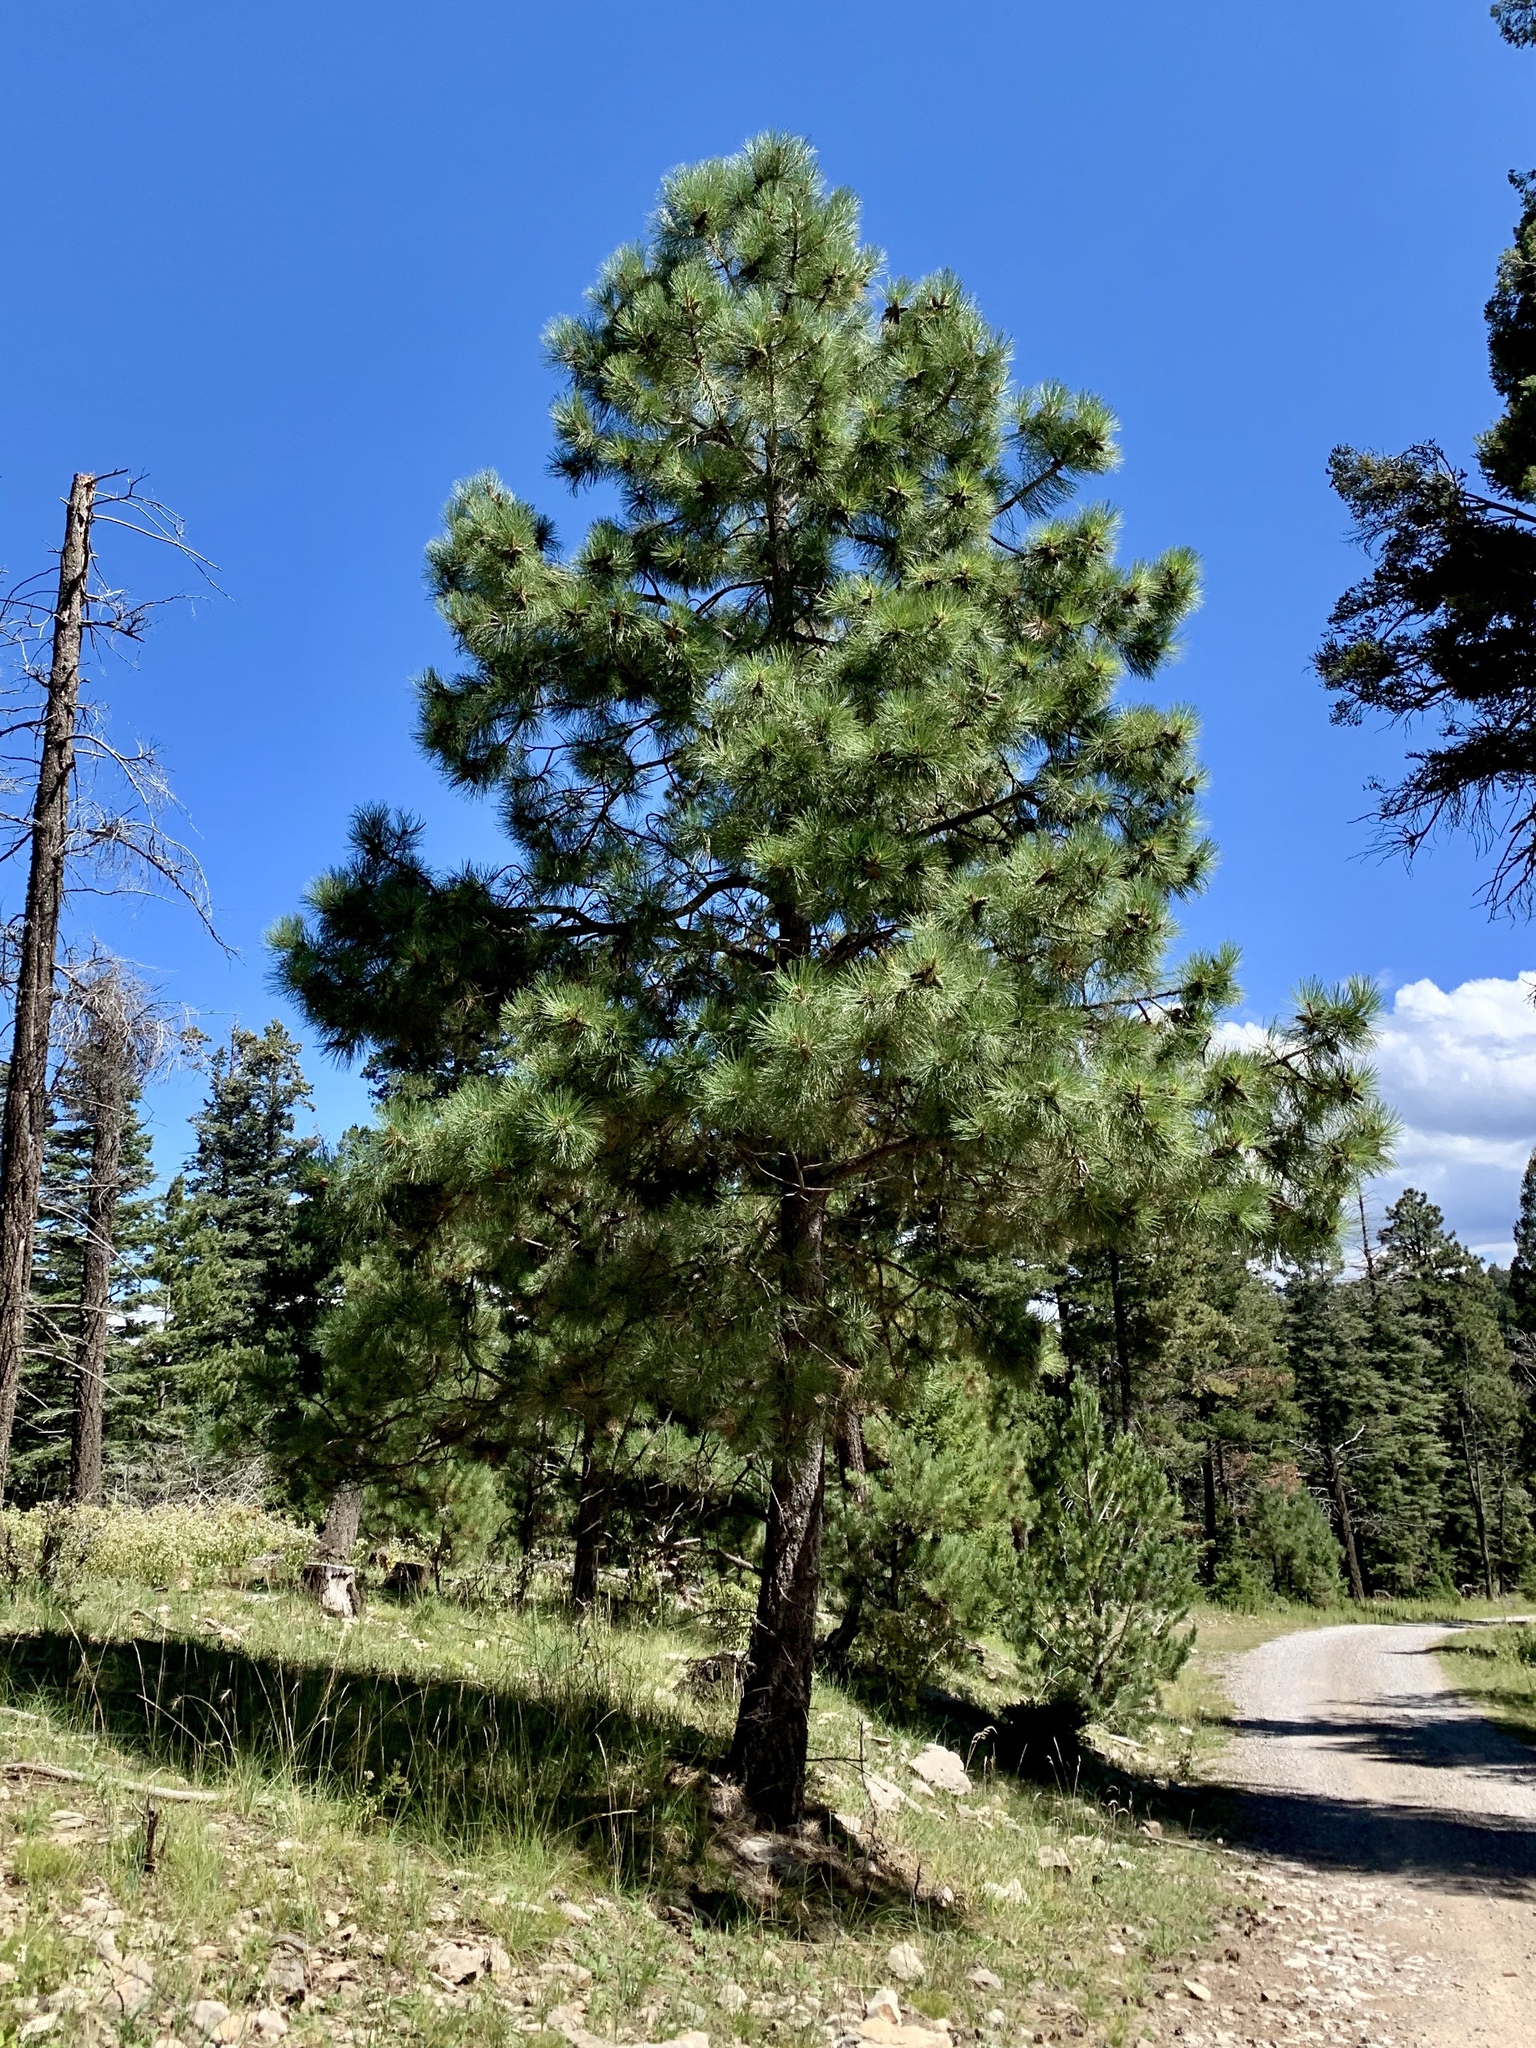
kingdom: Plantae
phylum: Tracheophyta
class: Pinopsida
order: Pinales
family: Pinaceae
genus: Pinus
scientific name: Pinus ponderosa
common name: Western yellow-pine
